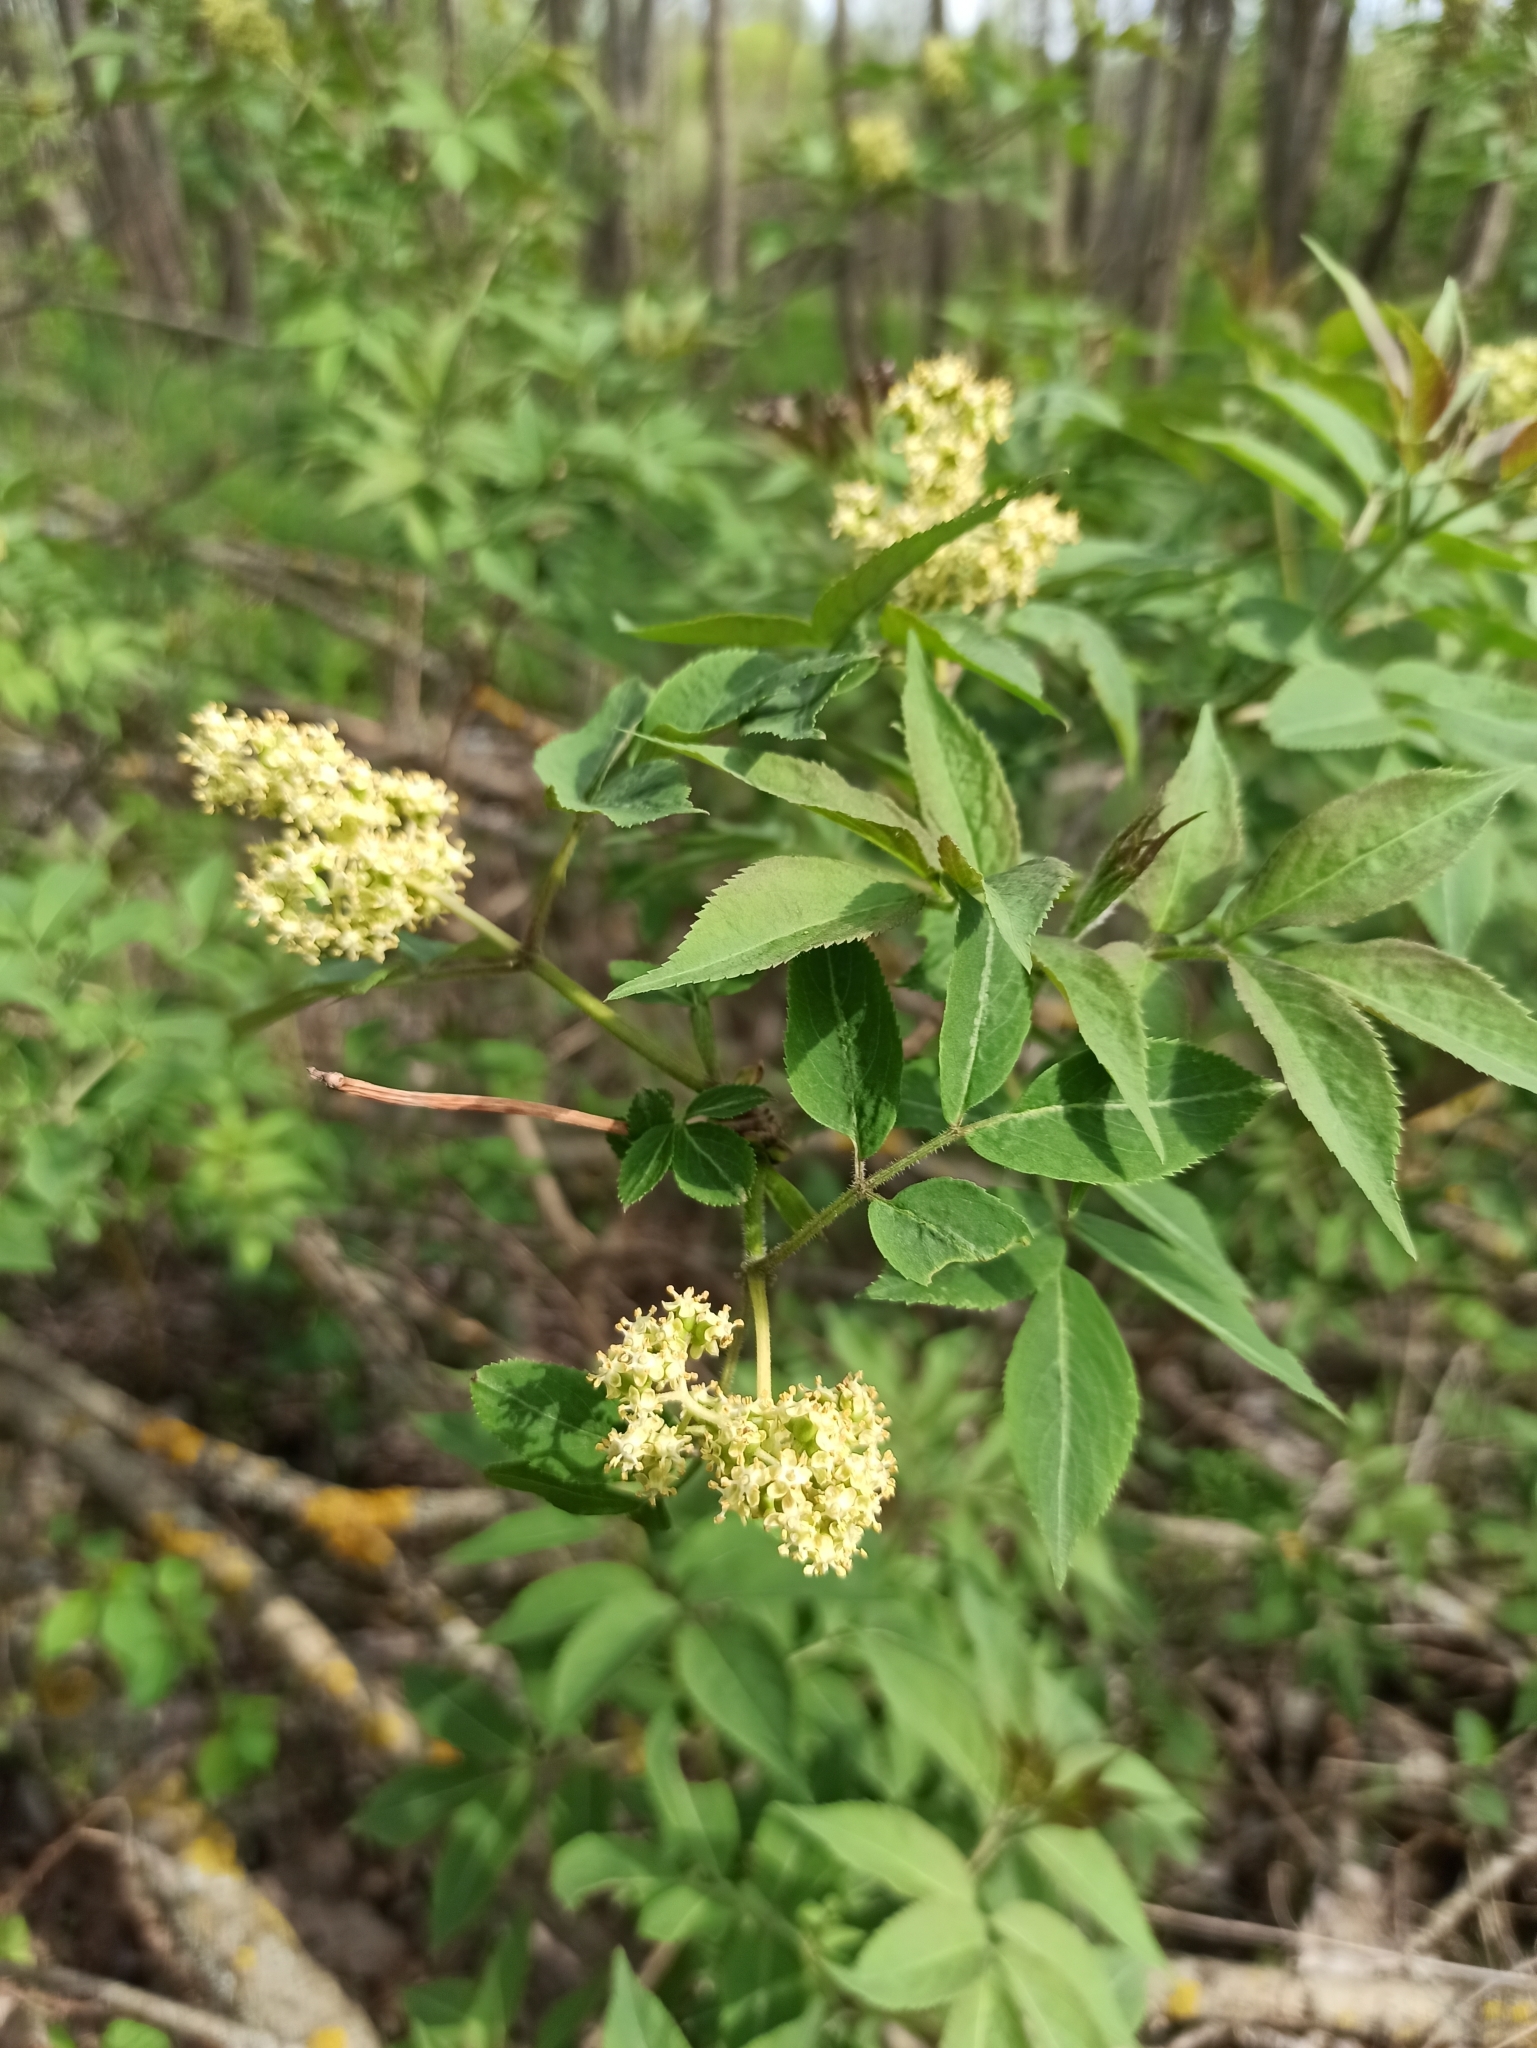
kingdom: Plantae
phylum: Tracheophyta
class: Magnoliopsida
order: Dipsacales
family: Viburnaceae
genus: Sambucus
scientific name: Sambucus racemosa
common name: Red-berried elder
